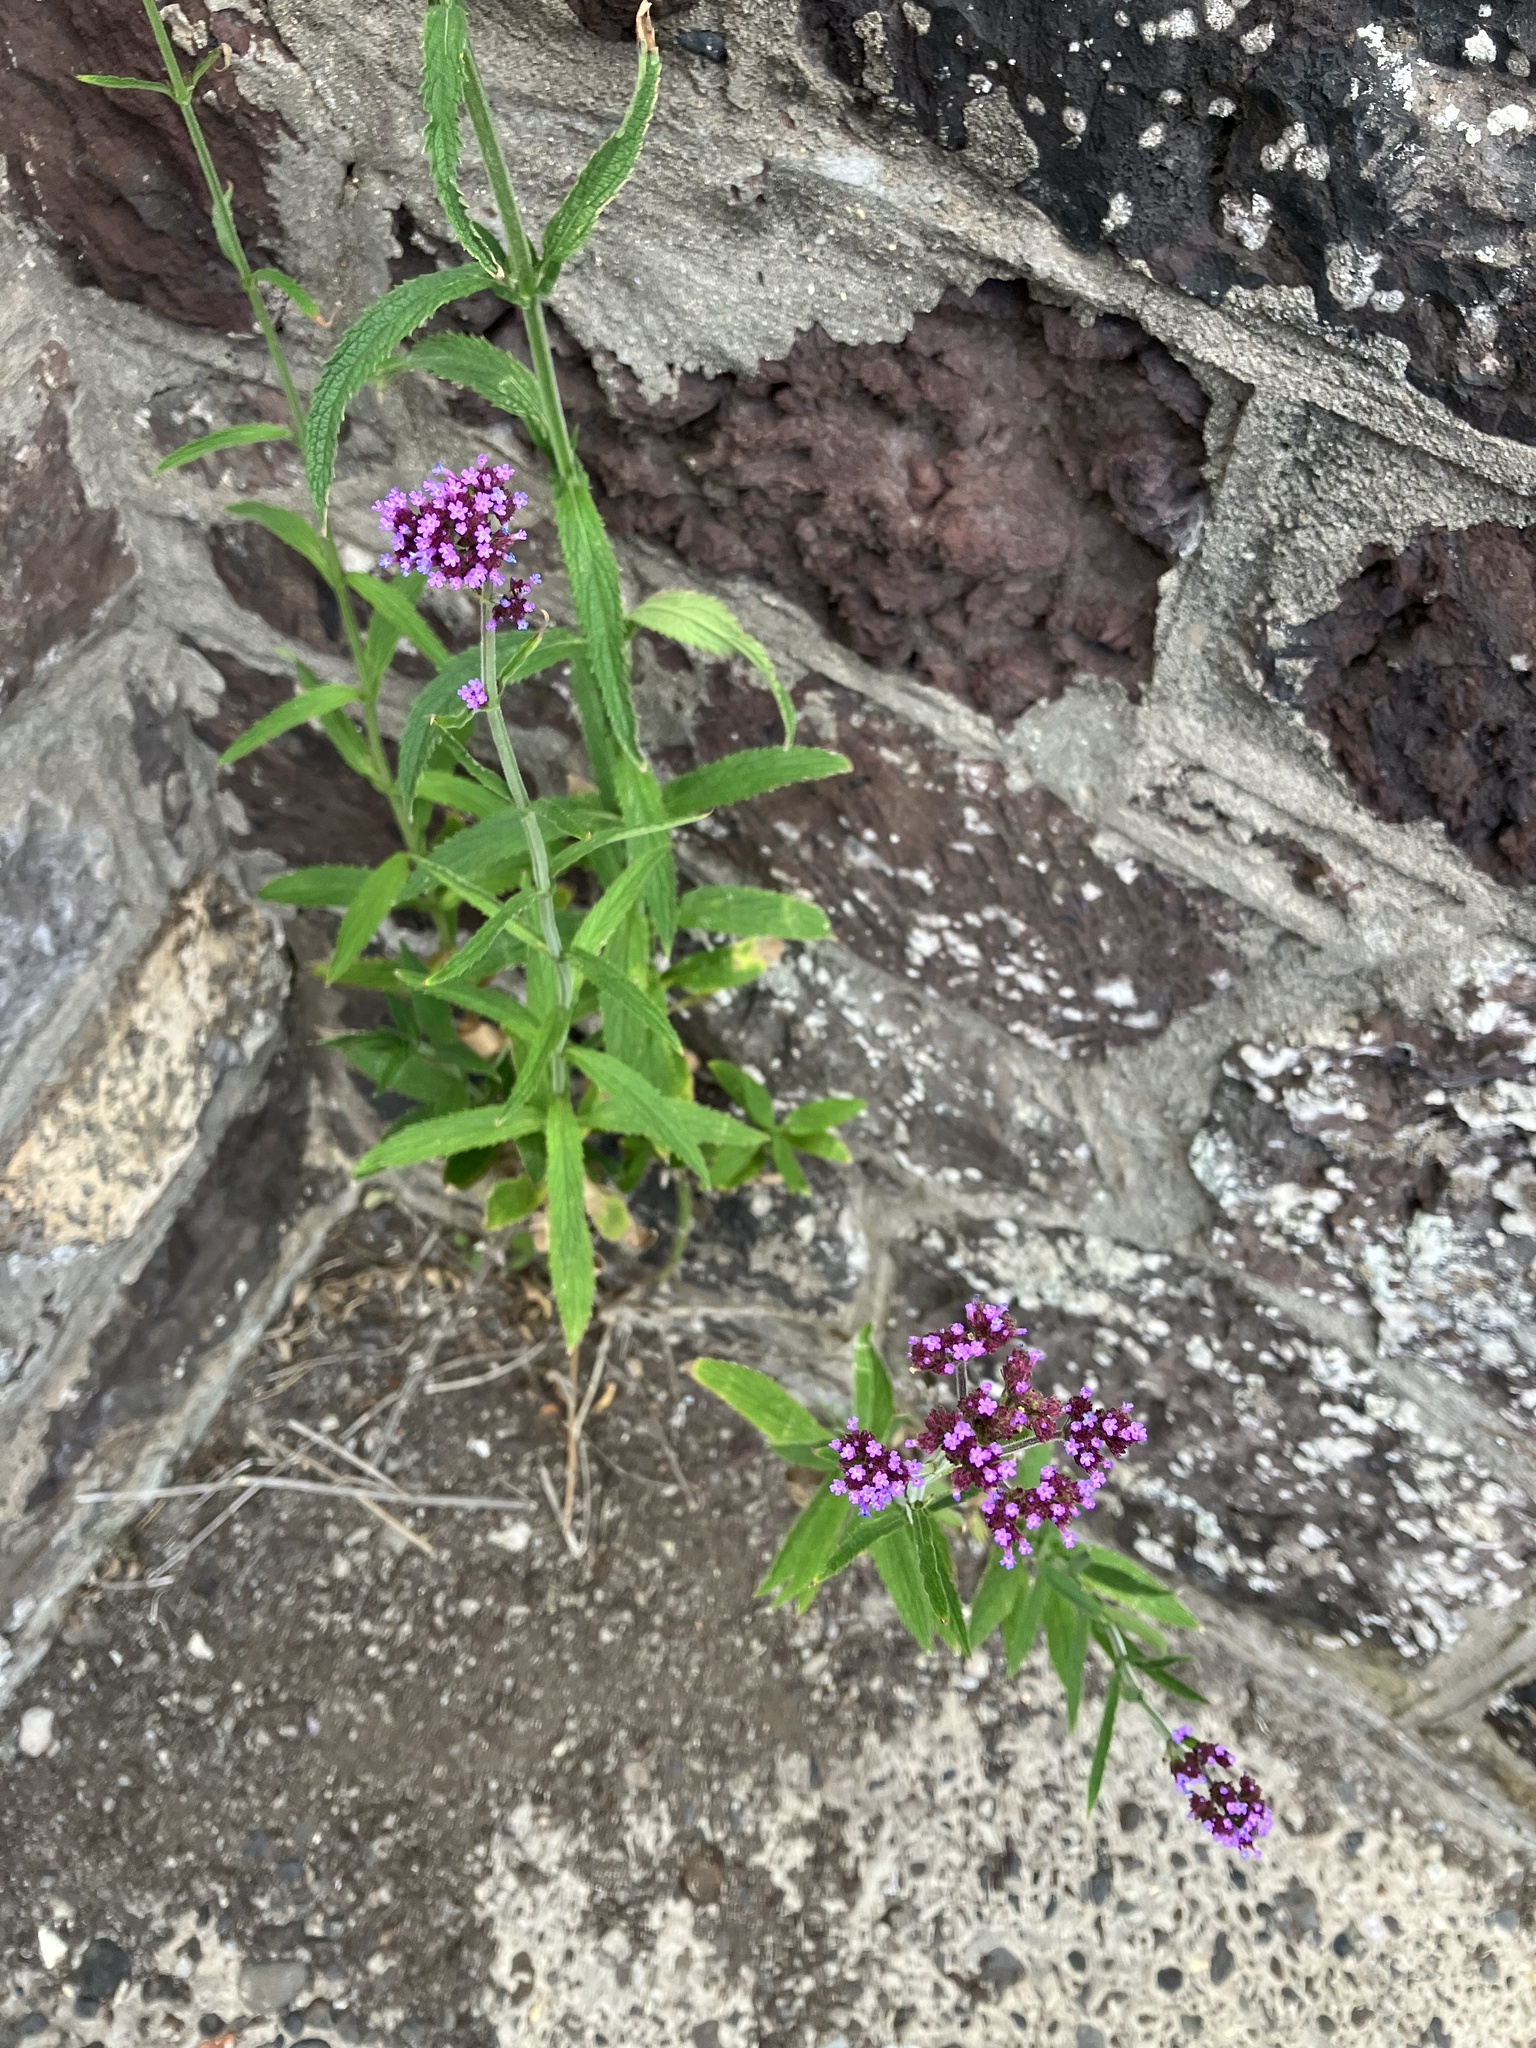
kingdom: Plantae
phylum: Tracheophyta
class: Magnoliopsida
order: Lamiales
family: Verbenaceae
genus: Verbena
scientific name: Verbena bonariensis
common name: Purpletop vervain
